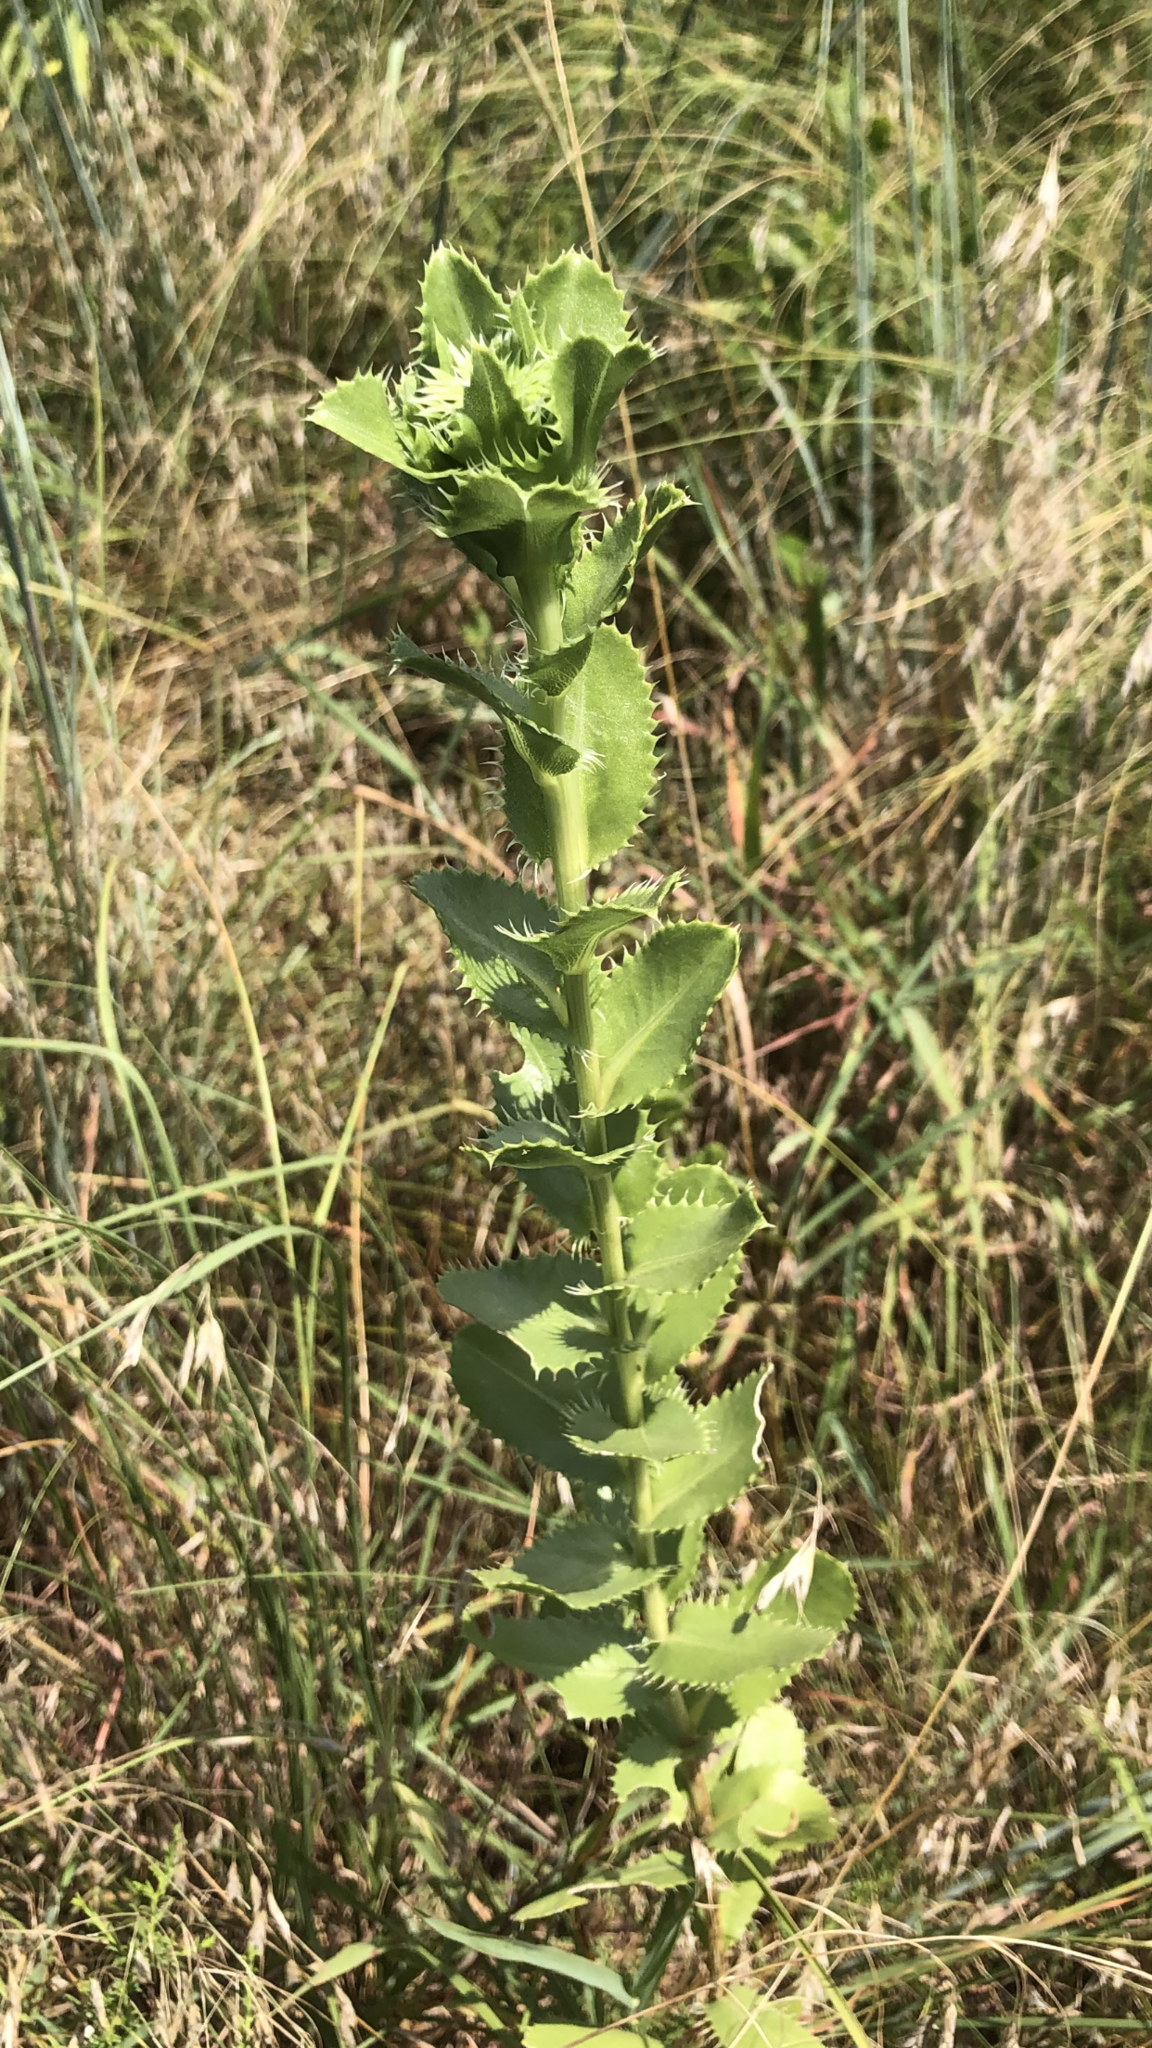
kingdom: Plantae
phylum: Tracheophyta
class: Magnoliopsida
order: Asterales
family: Asteraceae
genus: Grindelia
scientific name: Grindelia ciliata
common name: Goldenweed
